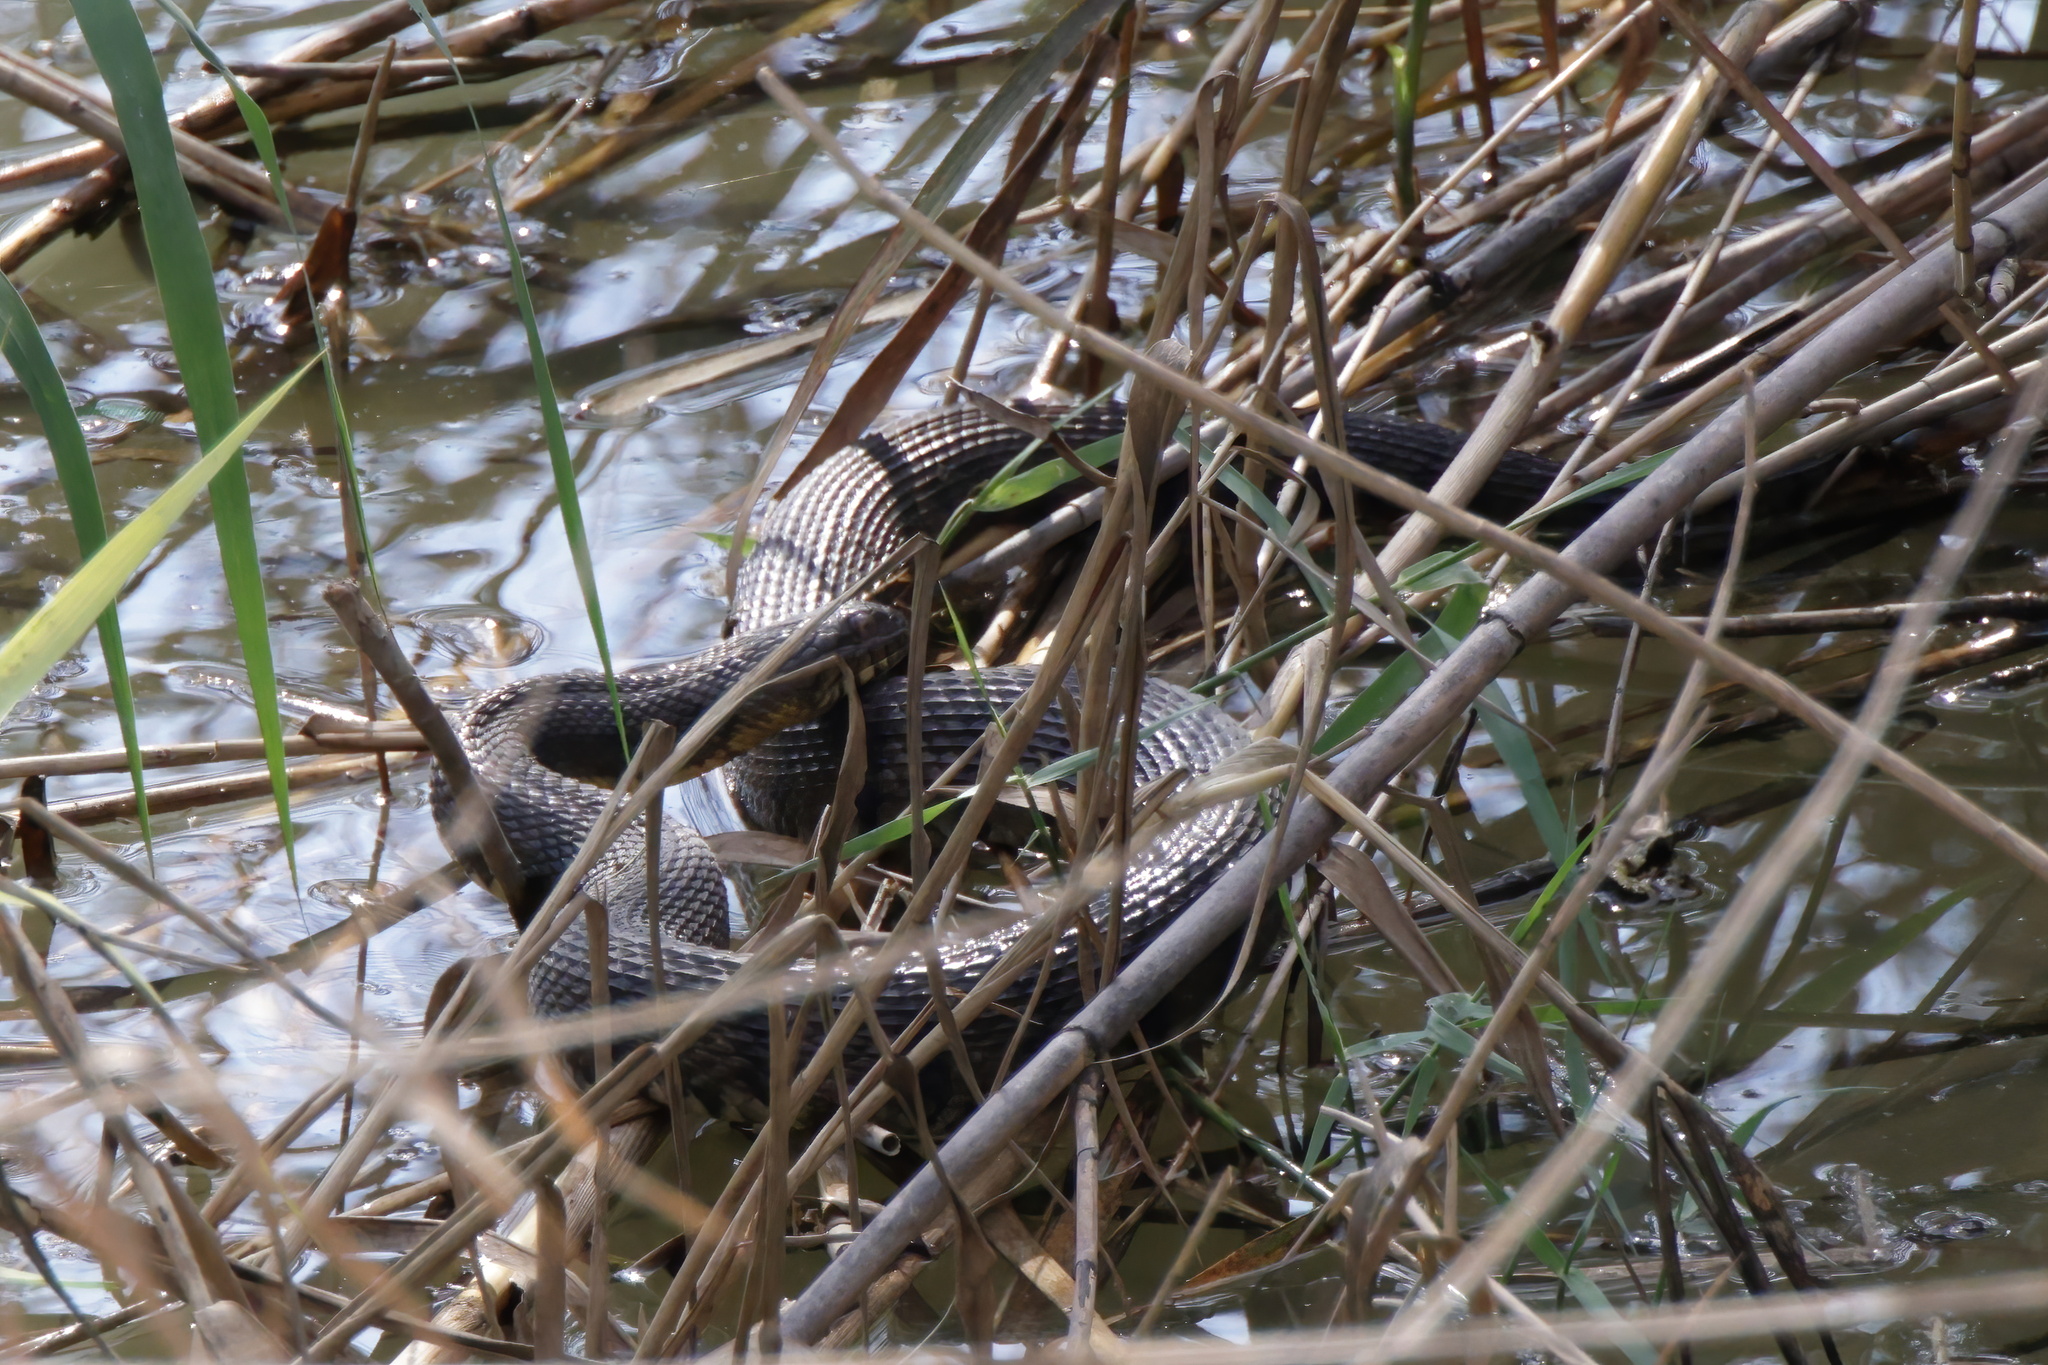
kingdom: Animalia
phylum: Chordata
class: Squamata
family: Colubridae
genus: Nerodia
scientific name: Nerodia rhombifer
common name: Diamondback water snake
